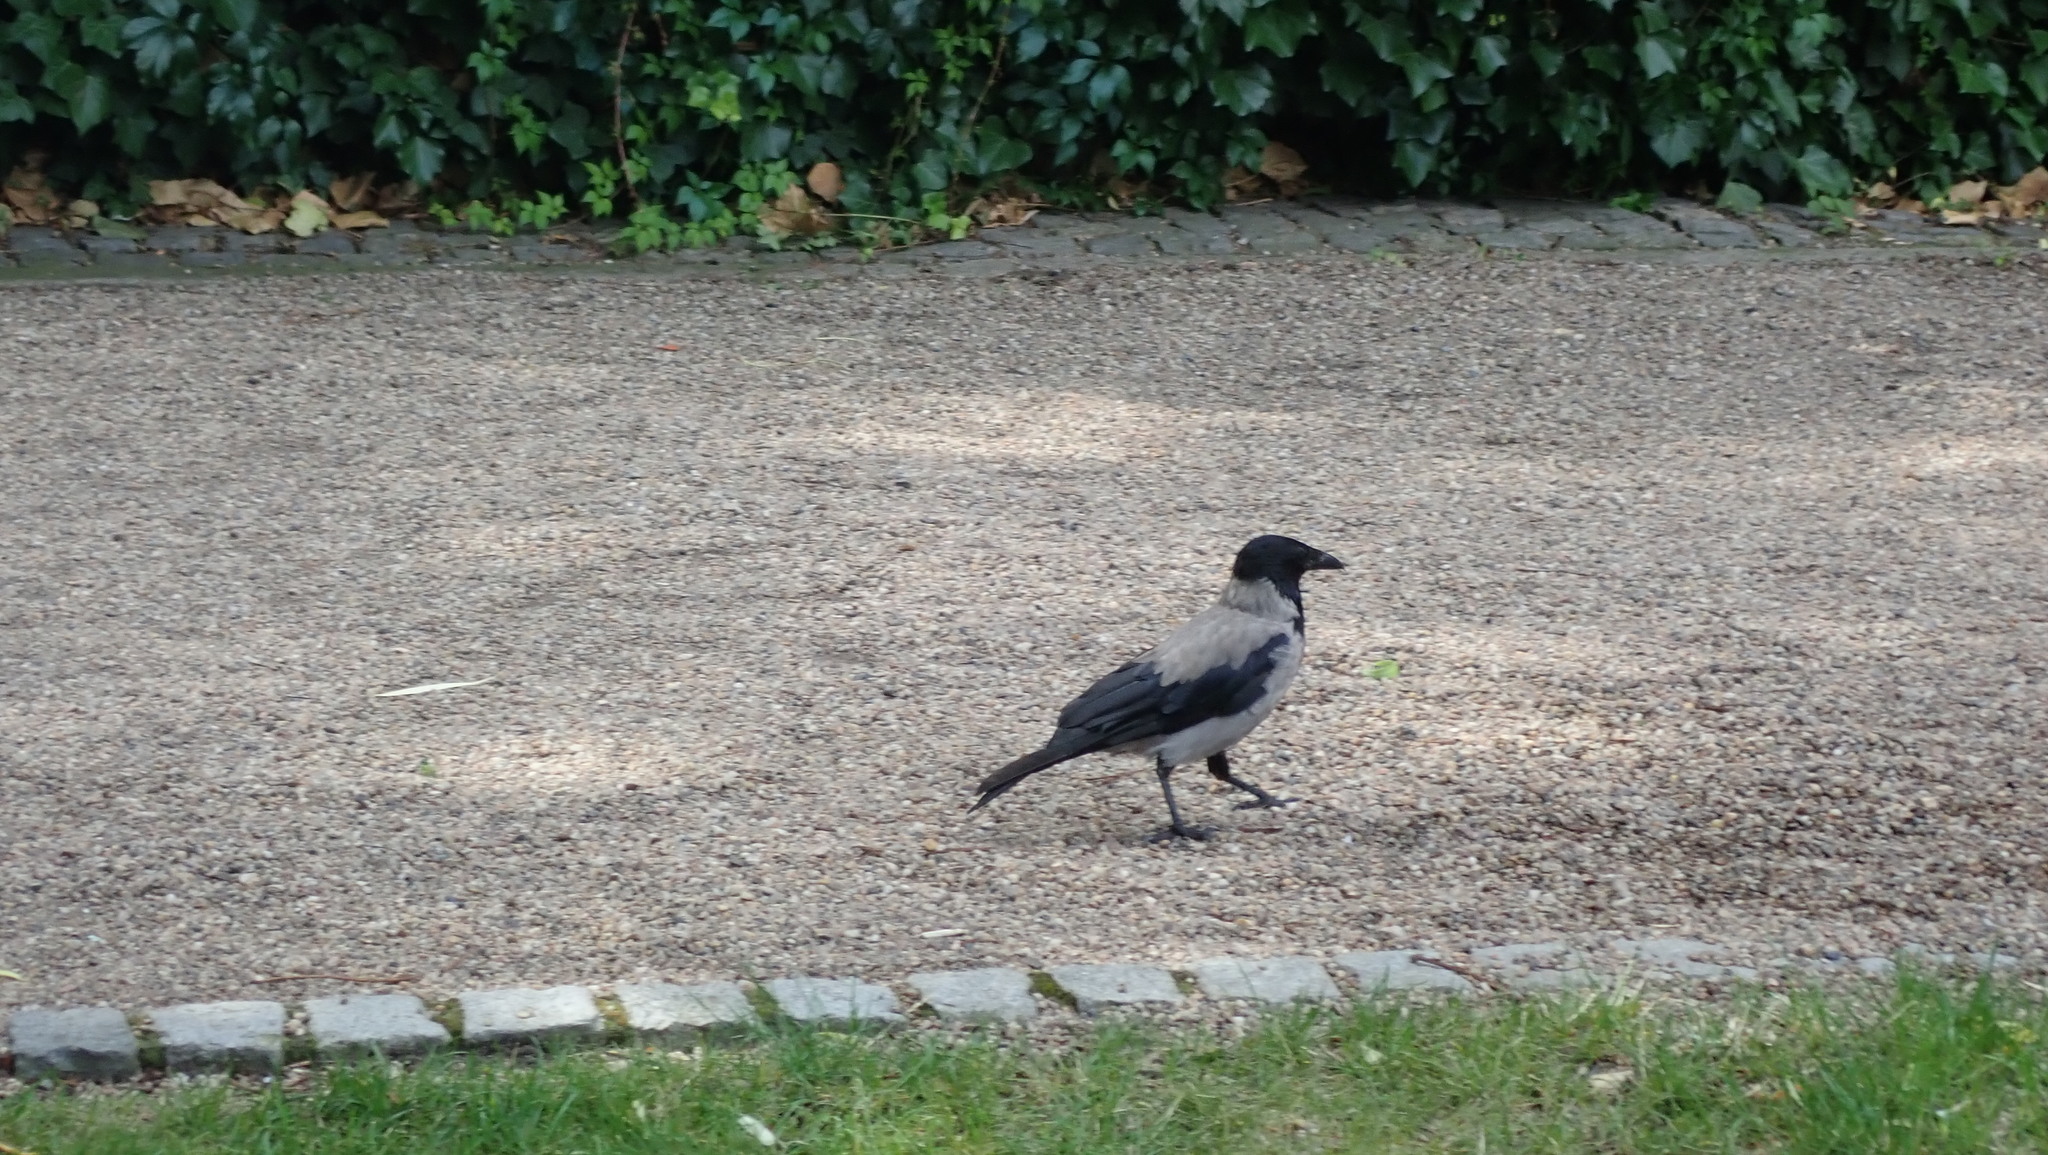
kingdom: Animalia
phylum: Chordata
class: Aves
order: Passeriformes
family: Corvidae
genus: Corvus
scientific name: Corvus cornix
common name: Hooded crow
